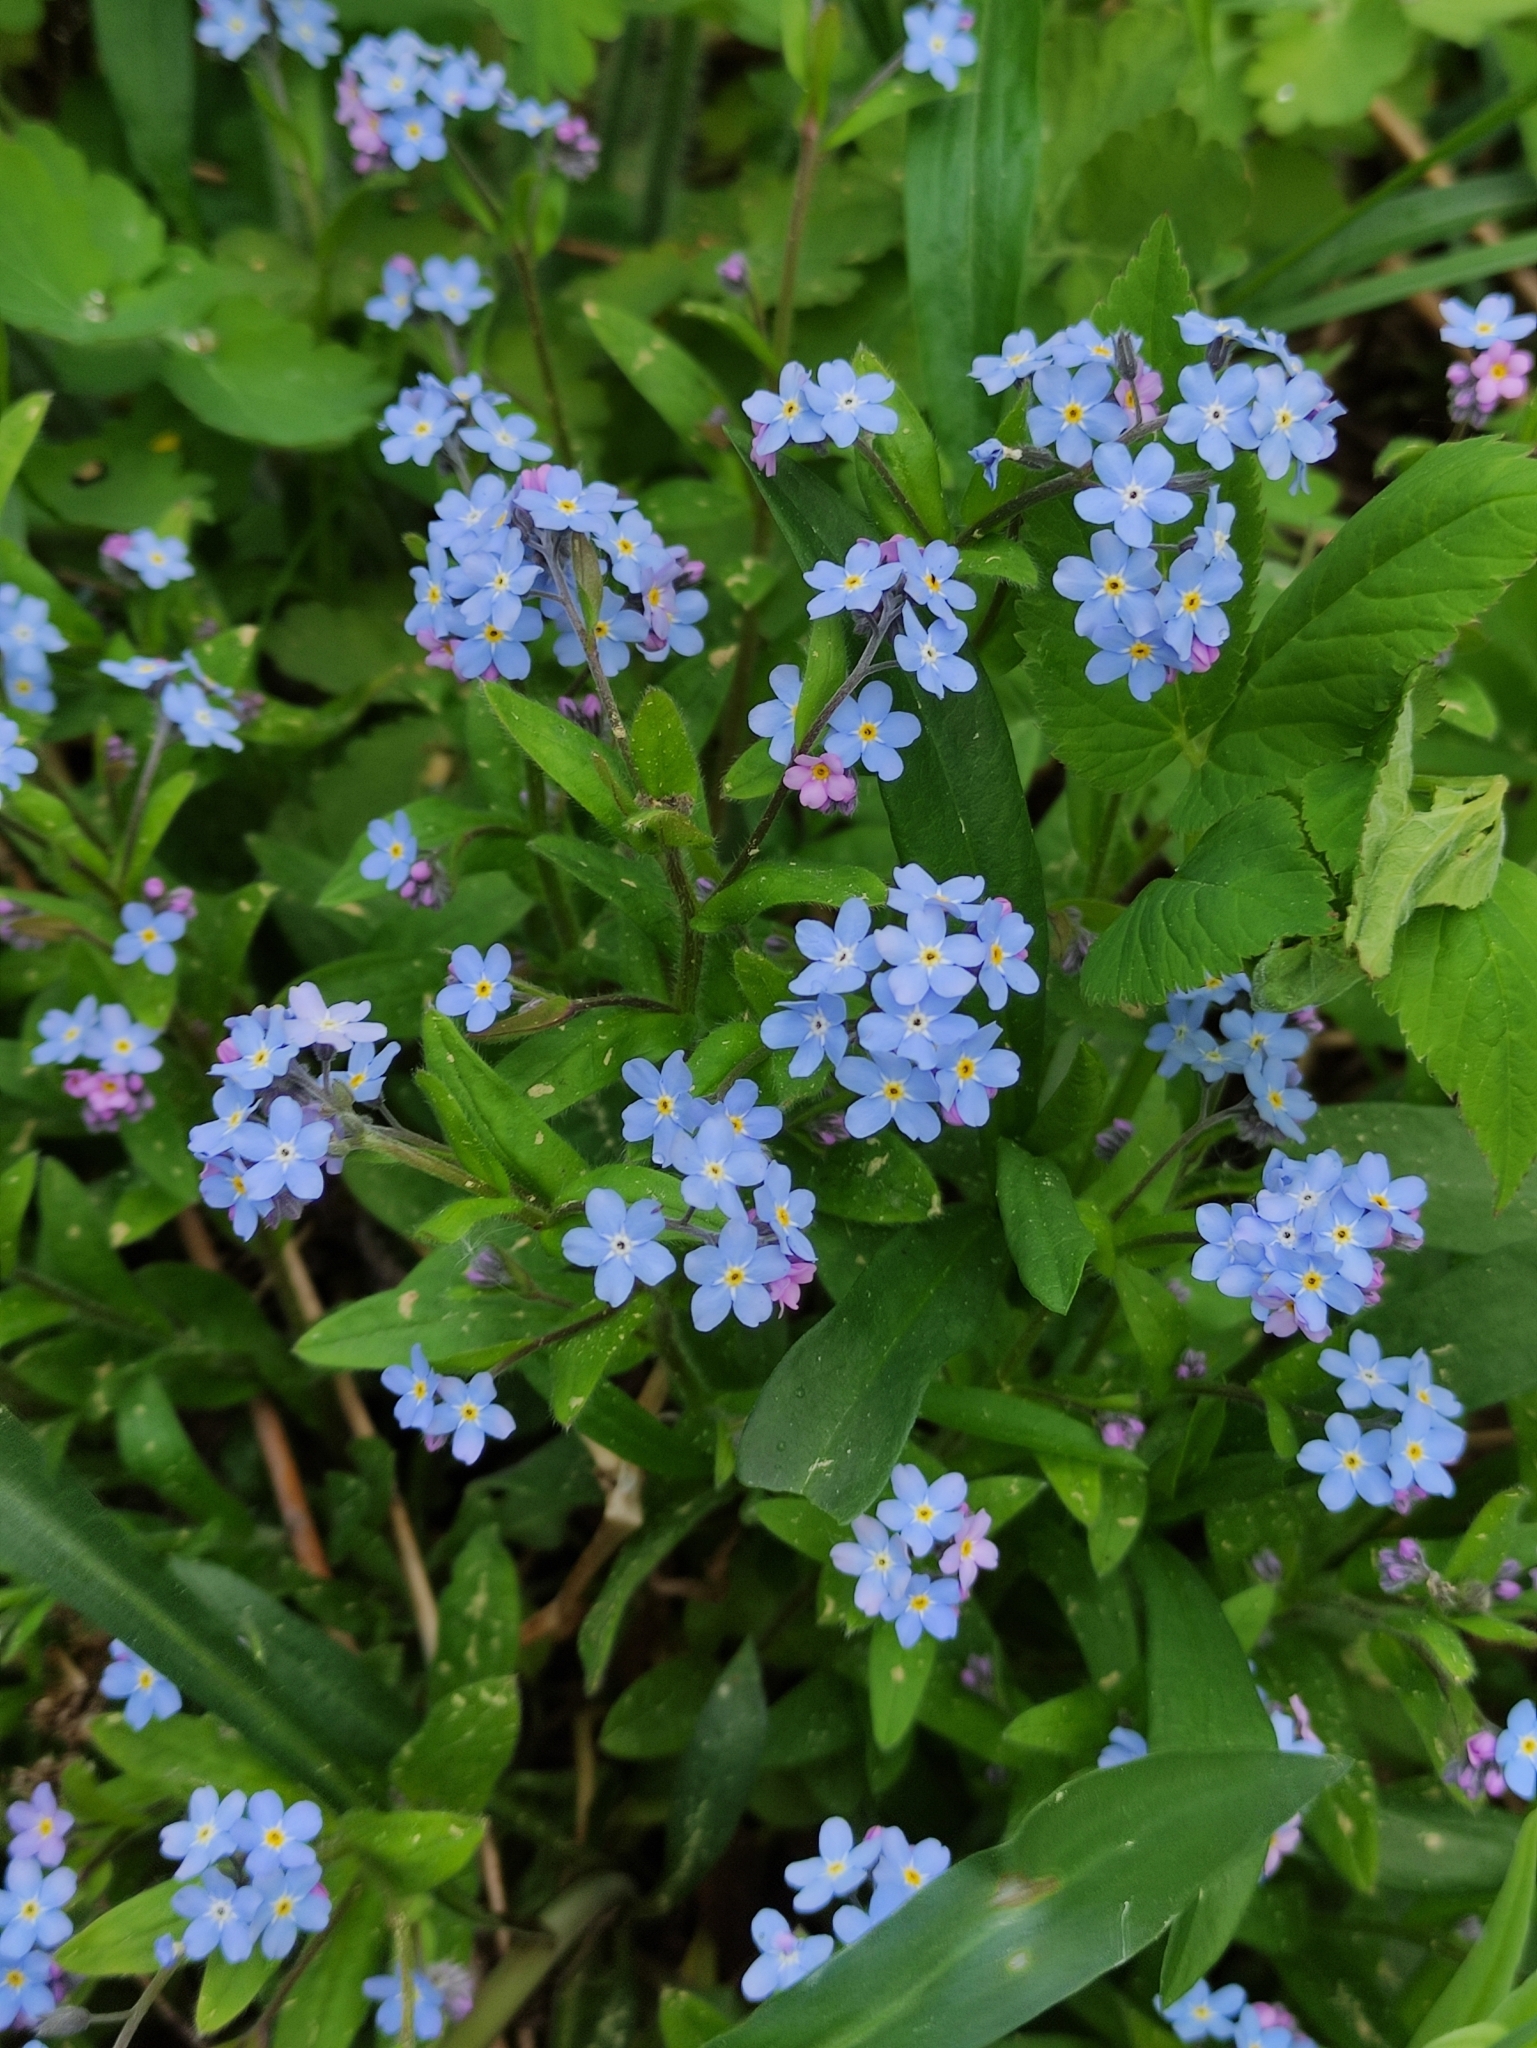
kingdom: Plantae
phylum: Tracheophyta
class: Magnoliopsida
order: Boraginales
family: Boraginaceae
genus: Myosotis
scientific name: Myosotis sylvatica
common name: Wood forget-me-not
